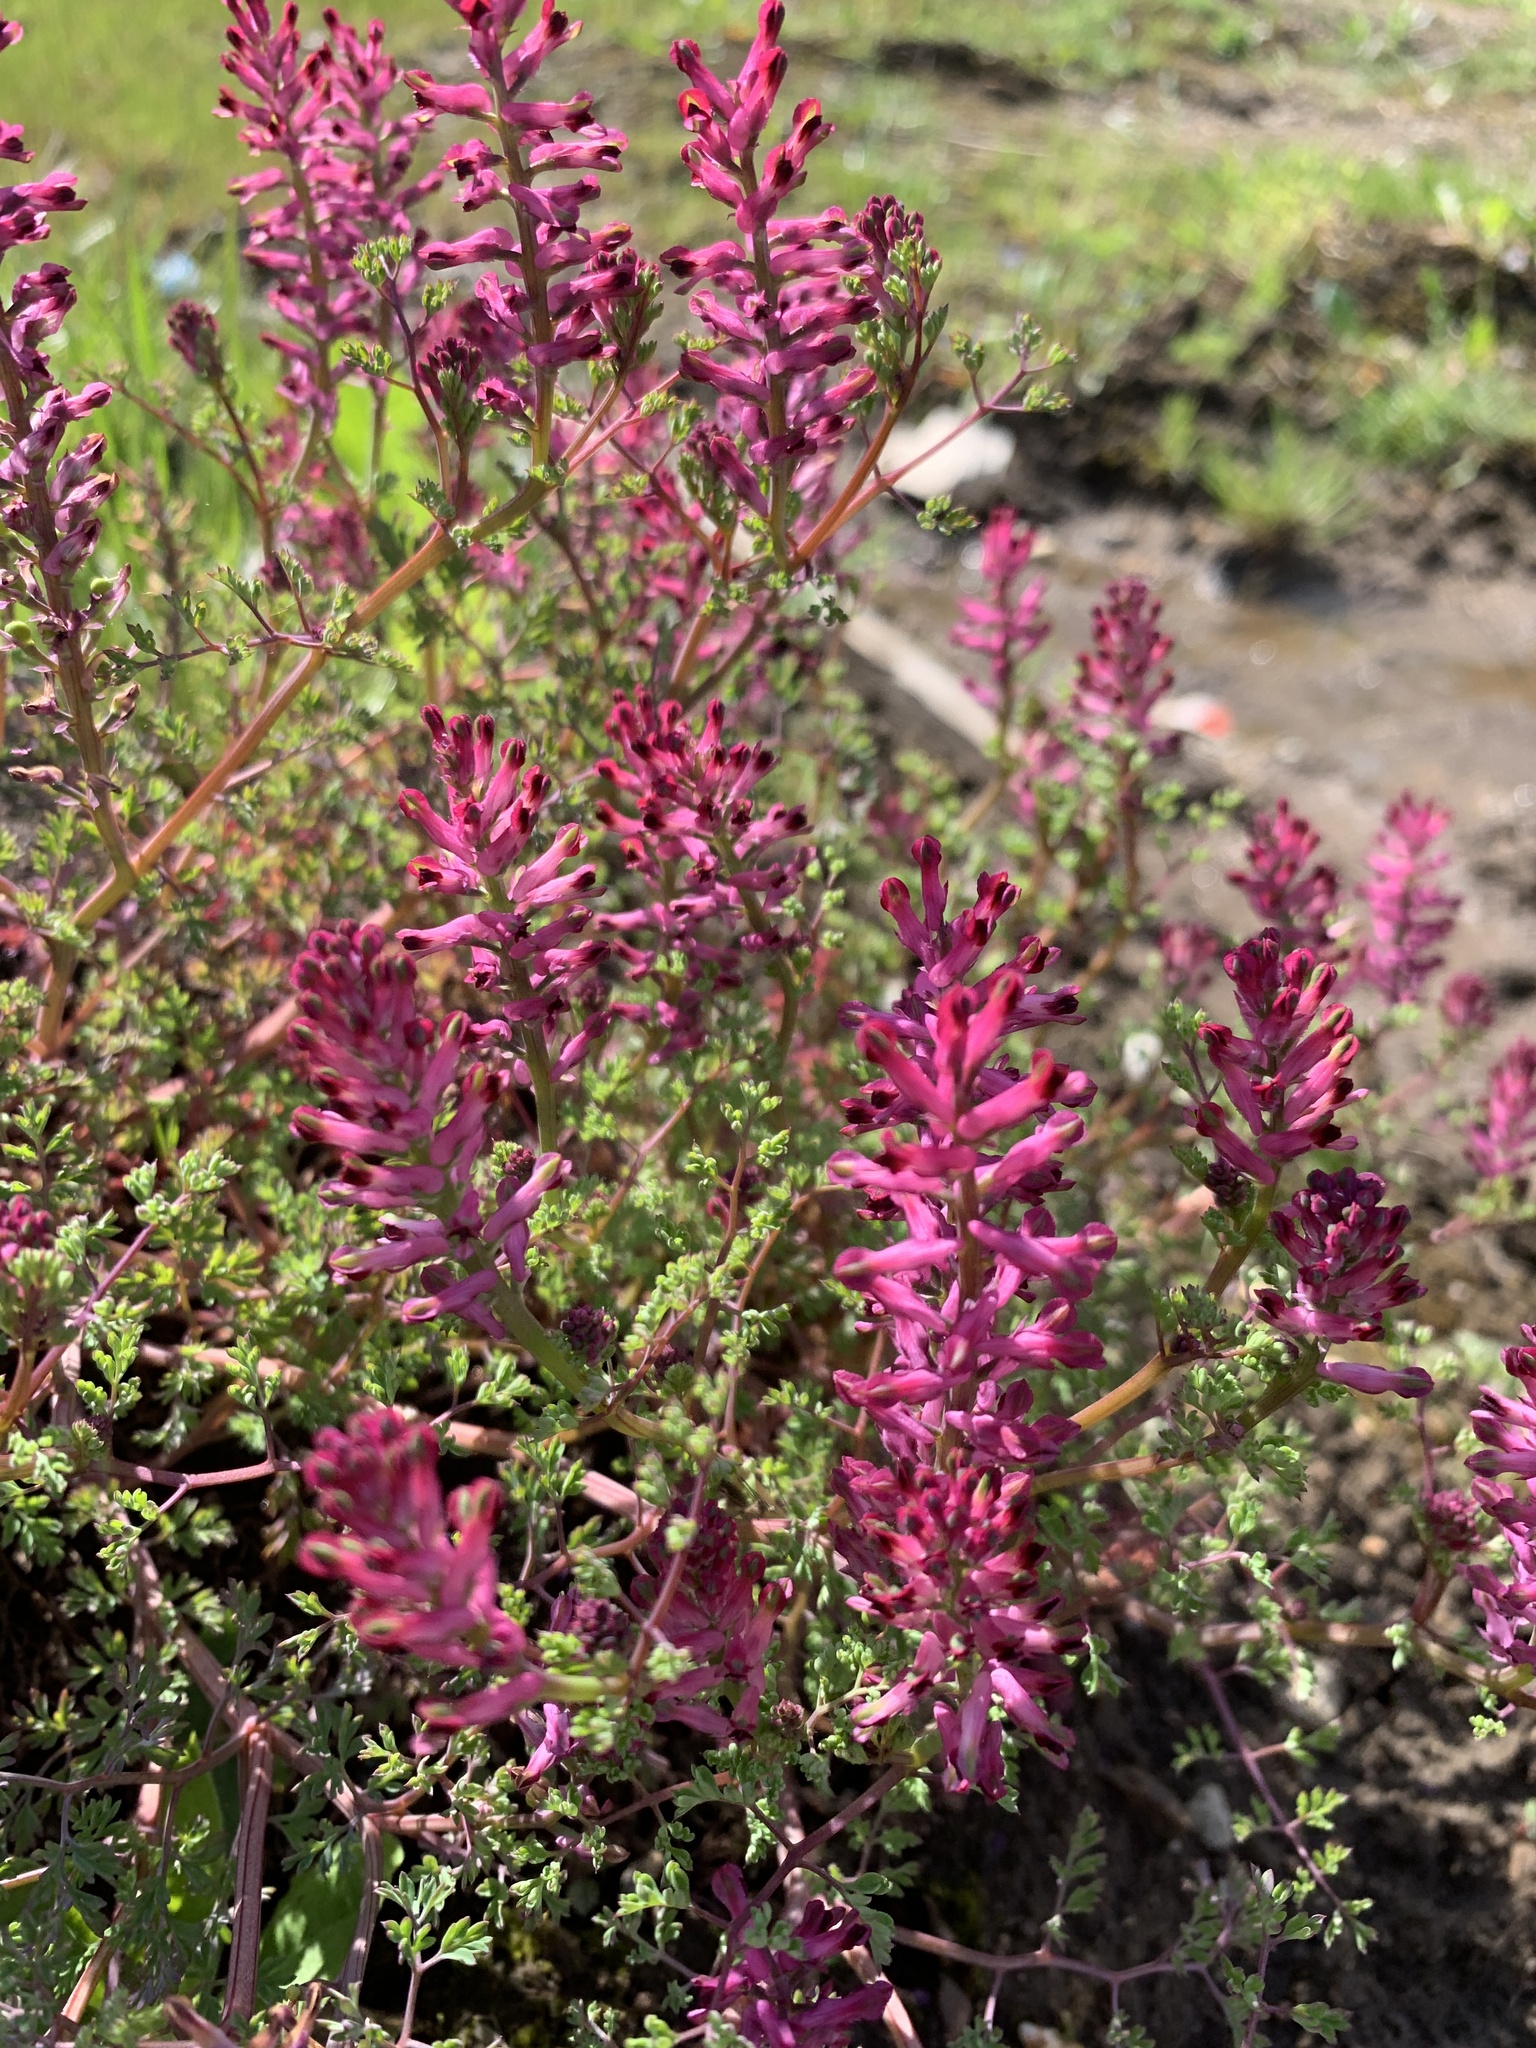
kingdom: Plantae
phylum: Tracheophyta
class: Magnoliopsida
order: Ranunculales
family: Papaveraceae
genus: Fumaria
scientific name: Fumaria officinalis
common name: Common fumitory
